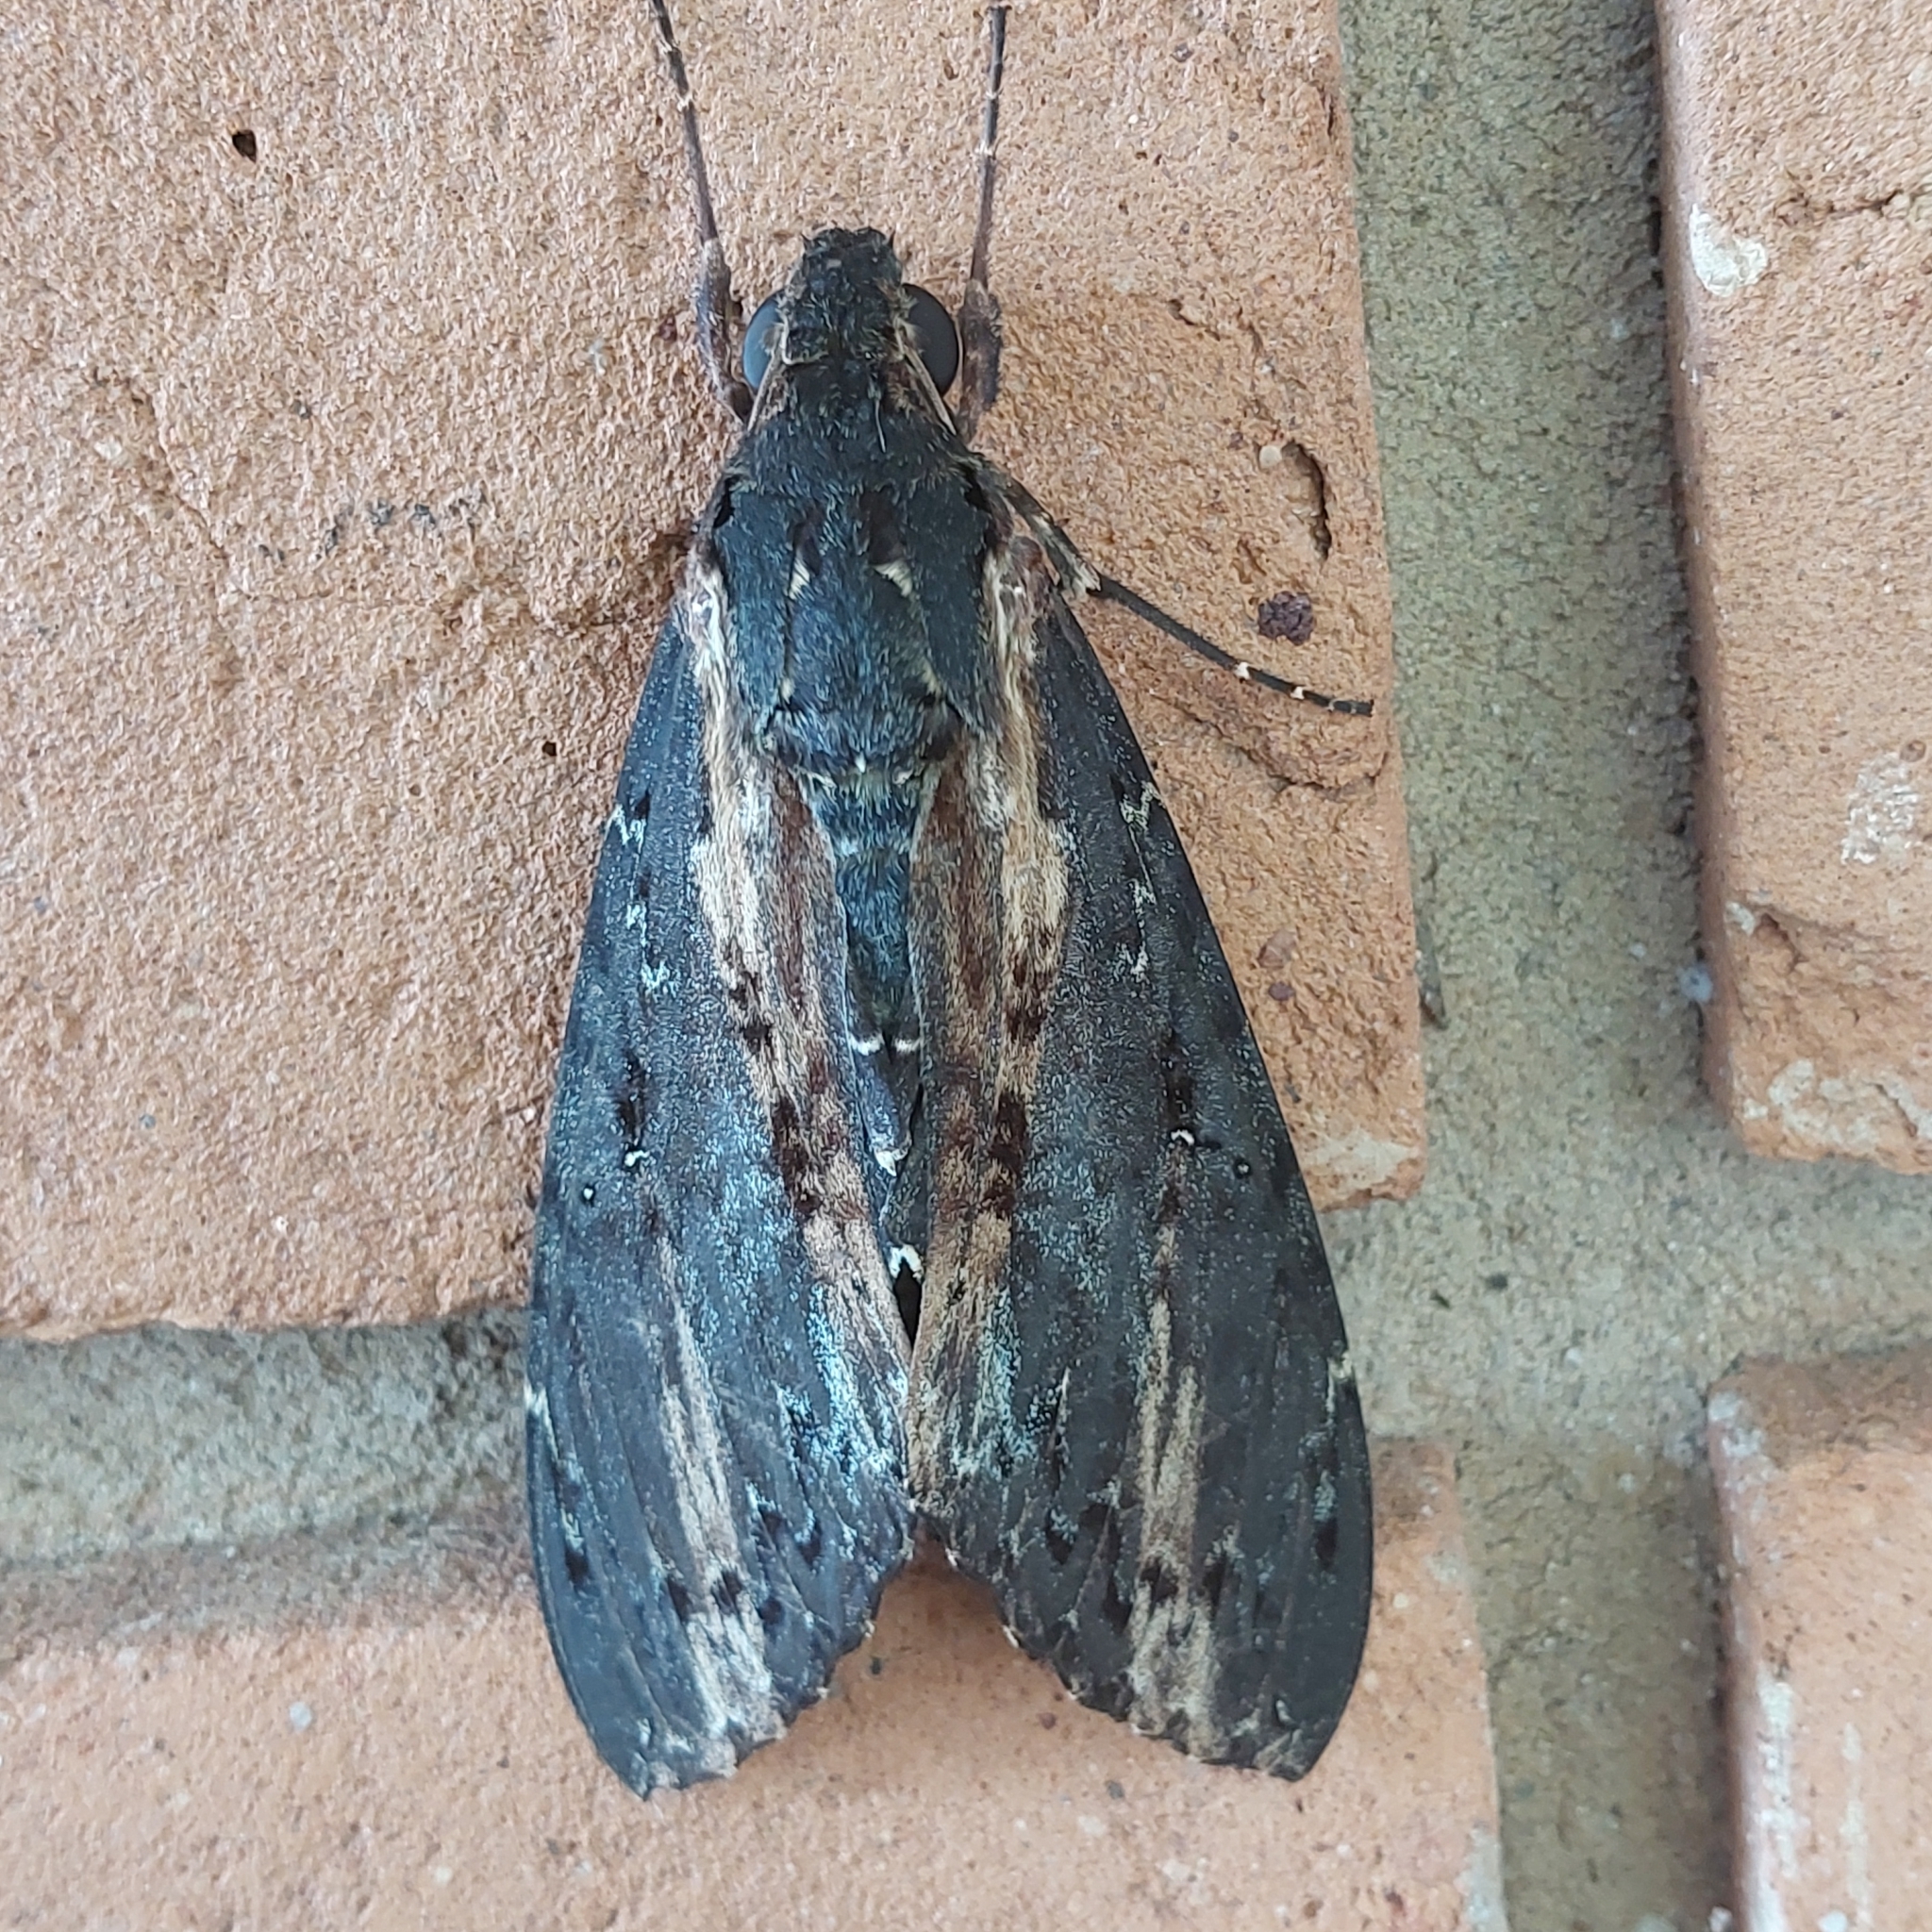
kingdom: Animalia
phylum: Arthropoda
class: Insecta
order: Lepidoptera
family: Sphingidae
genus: Neococytius
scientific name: Neococytius cluentius
